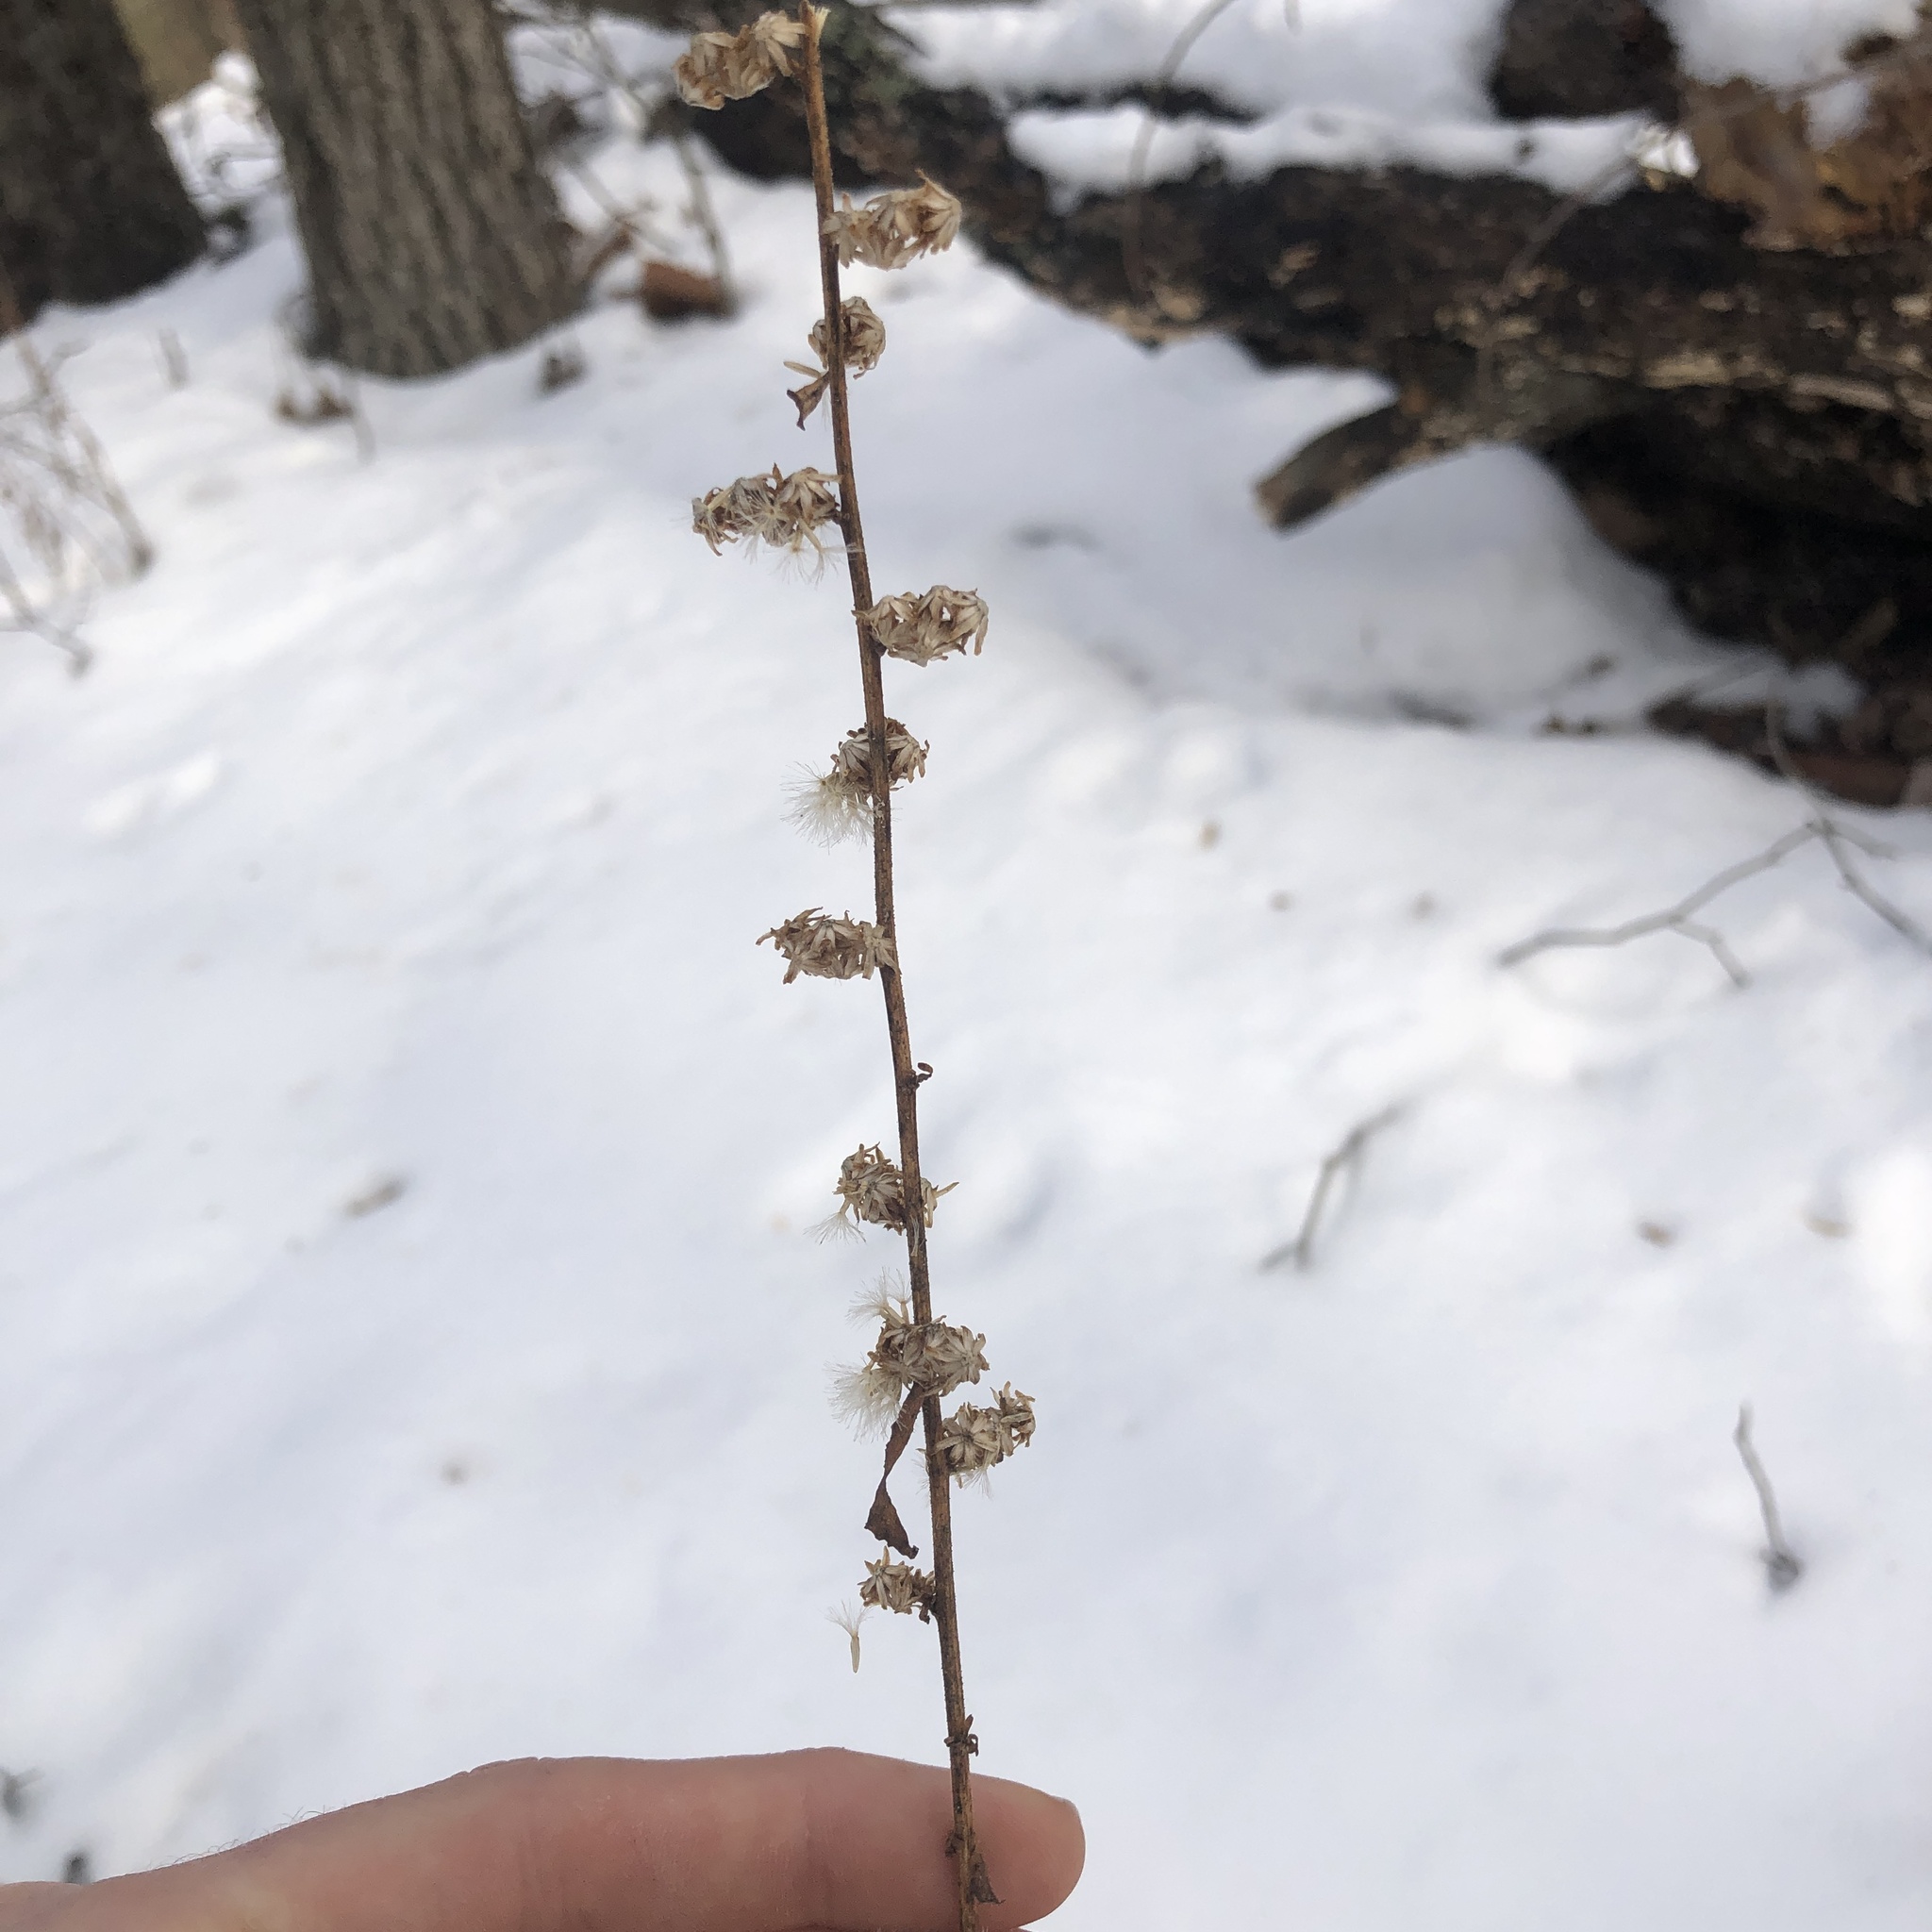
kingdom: Plantae
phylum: Tracheophyta
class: Magnoliopsida
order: Asterales
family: Asteraceae
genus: Solidago
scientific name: Solidago caesia
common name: Woodland goldenrod
